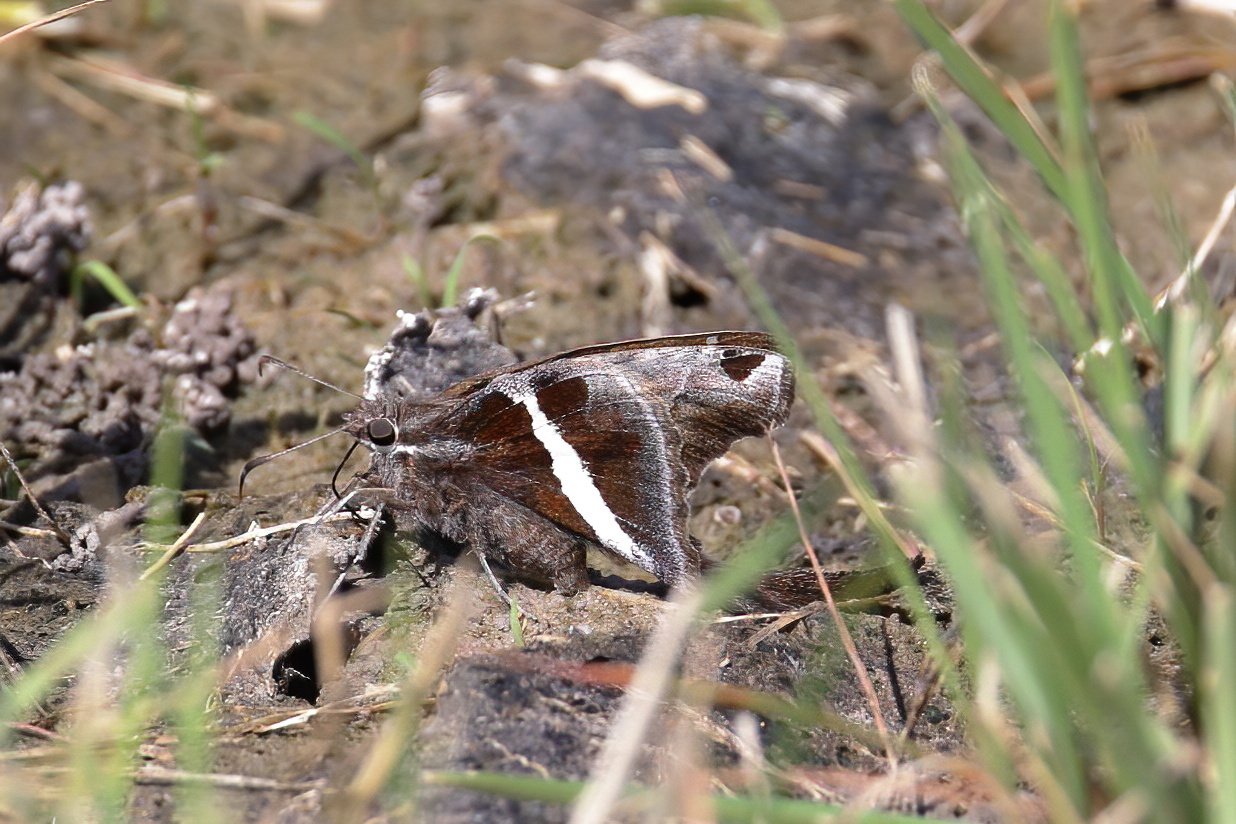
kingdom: Animalia
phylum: Arthropoda
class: Insecta
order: Lepidoptera
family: Hesperiidae
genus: Chioides
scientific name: Chioides catillus
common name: Silverbanded skipper
